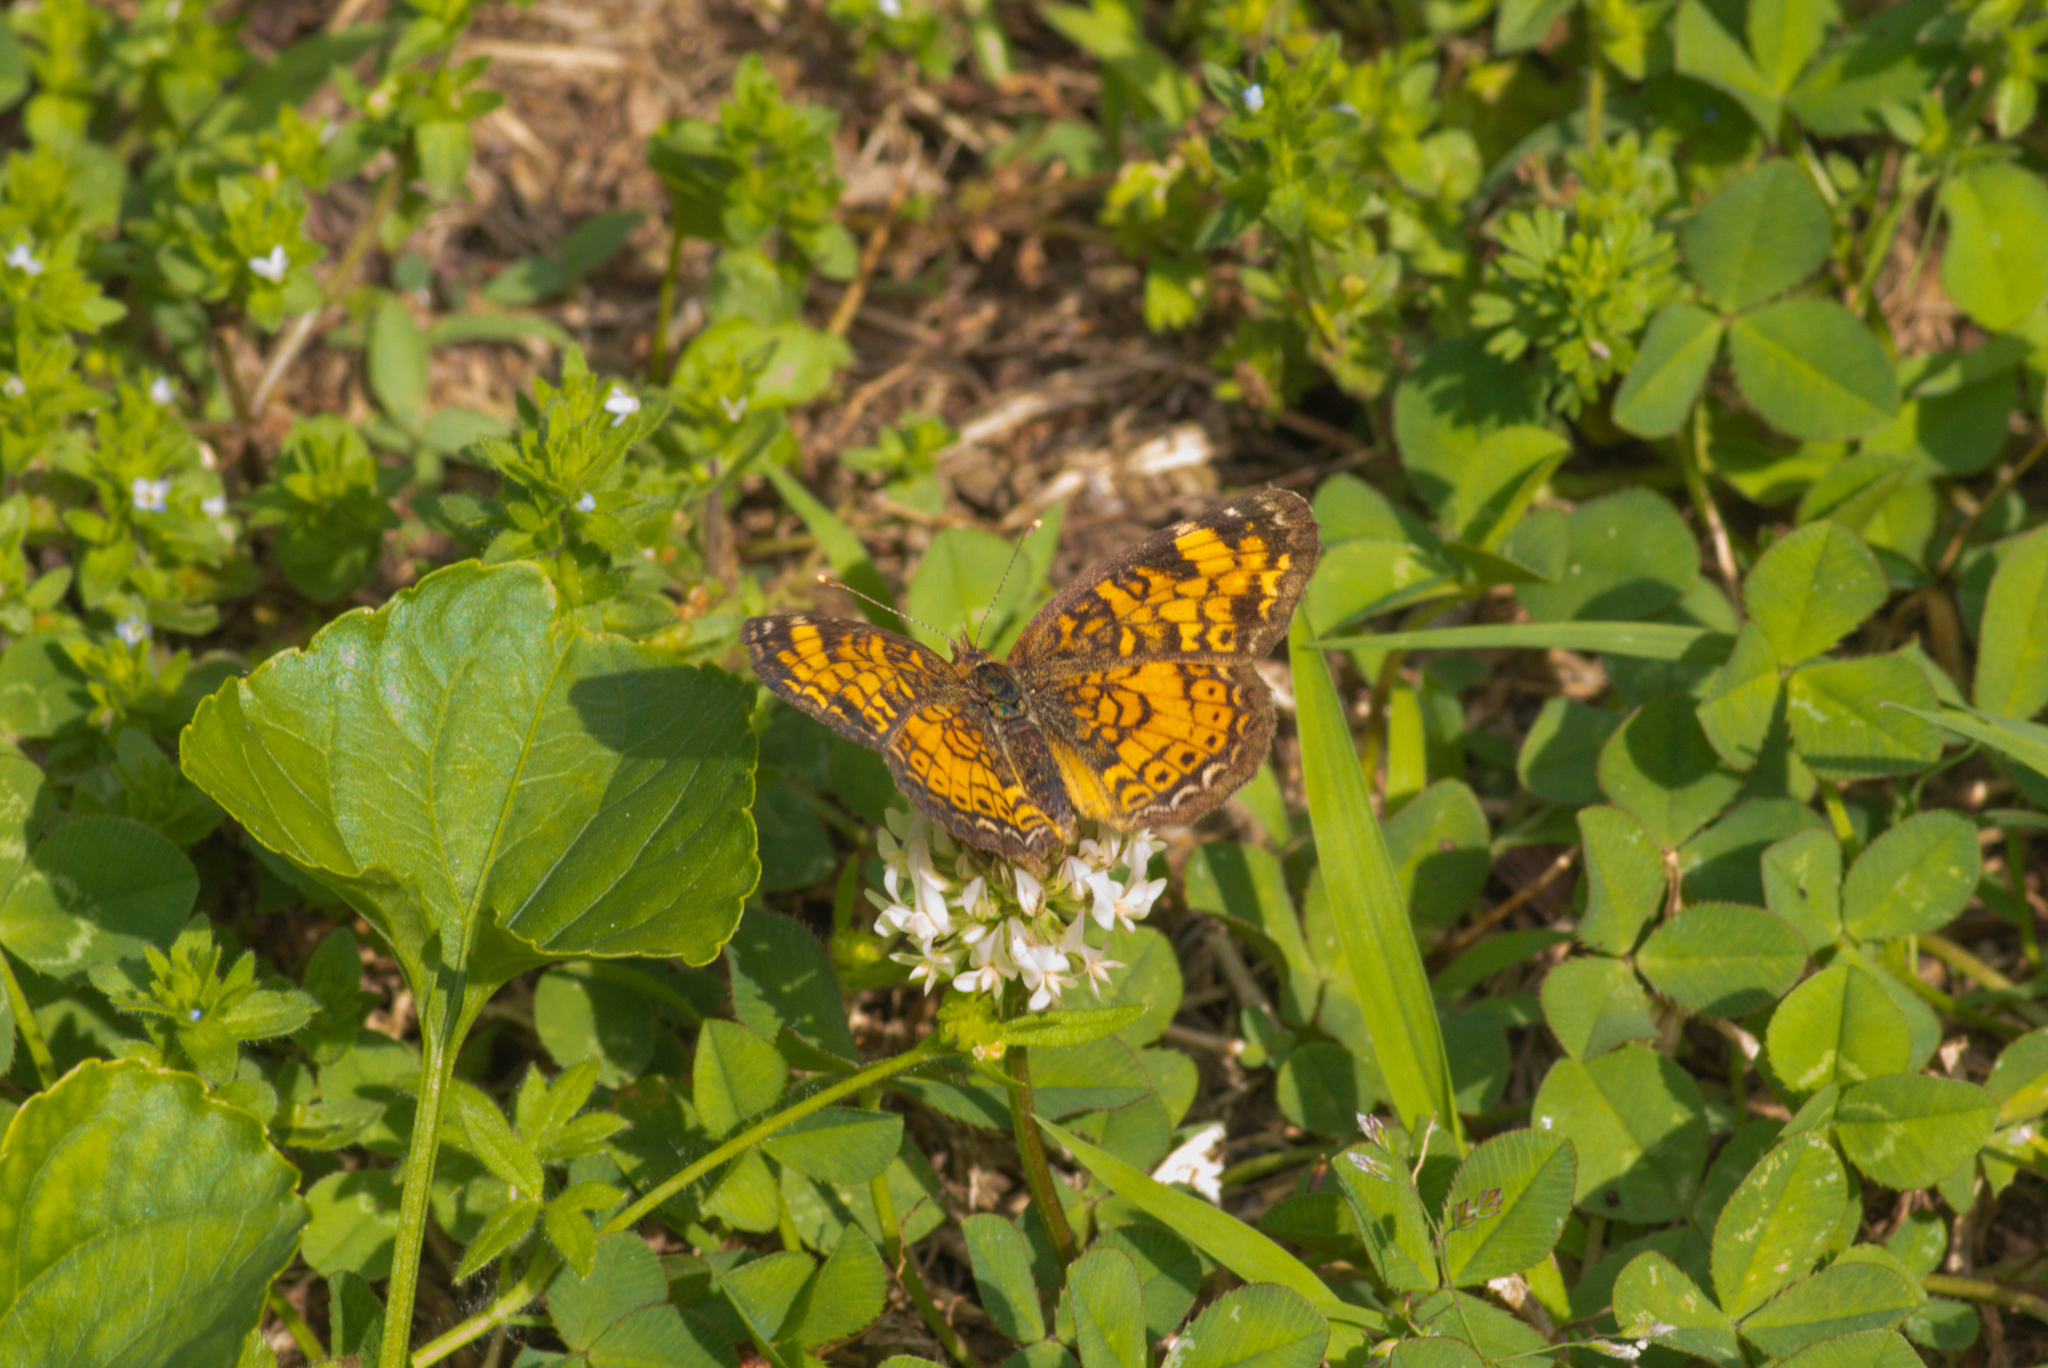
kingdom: Animalia
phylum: Arthropoda
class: Insecta
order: Lepidoptera
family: Nymphalidae
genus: Phyciodes
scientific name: Phyciodes tharos
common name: Pearl crescent
